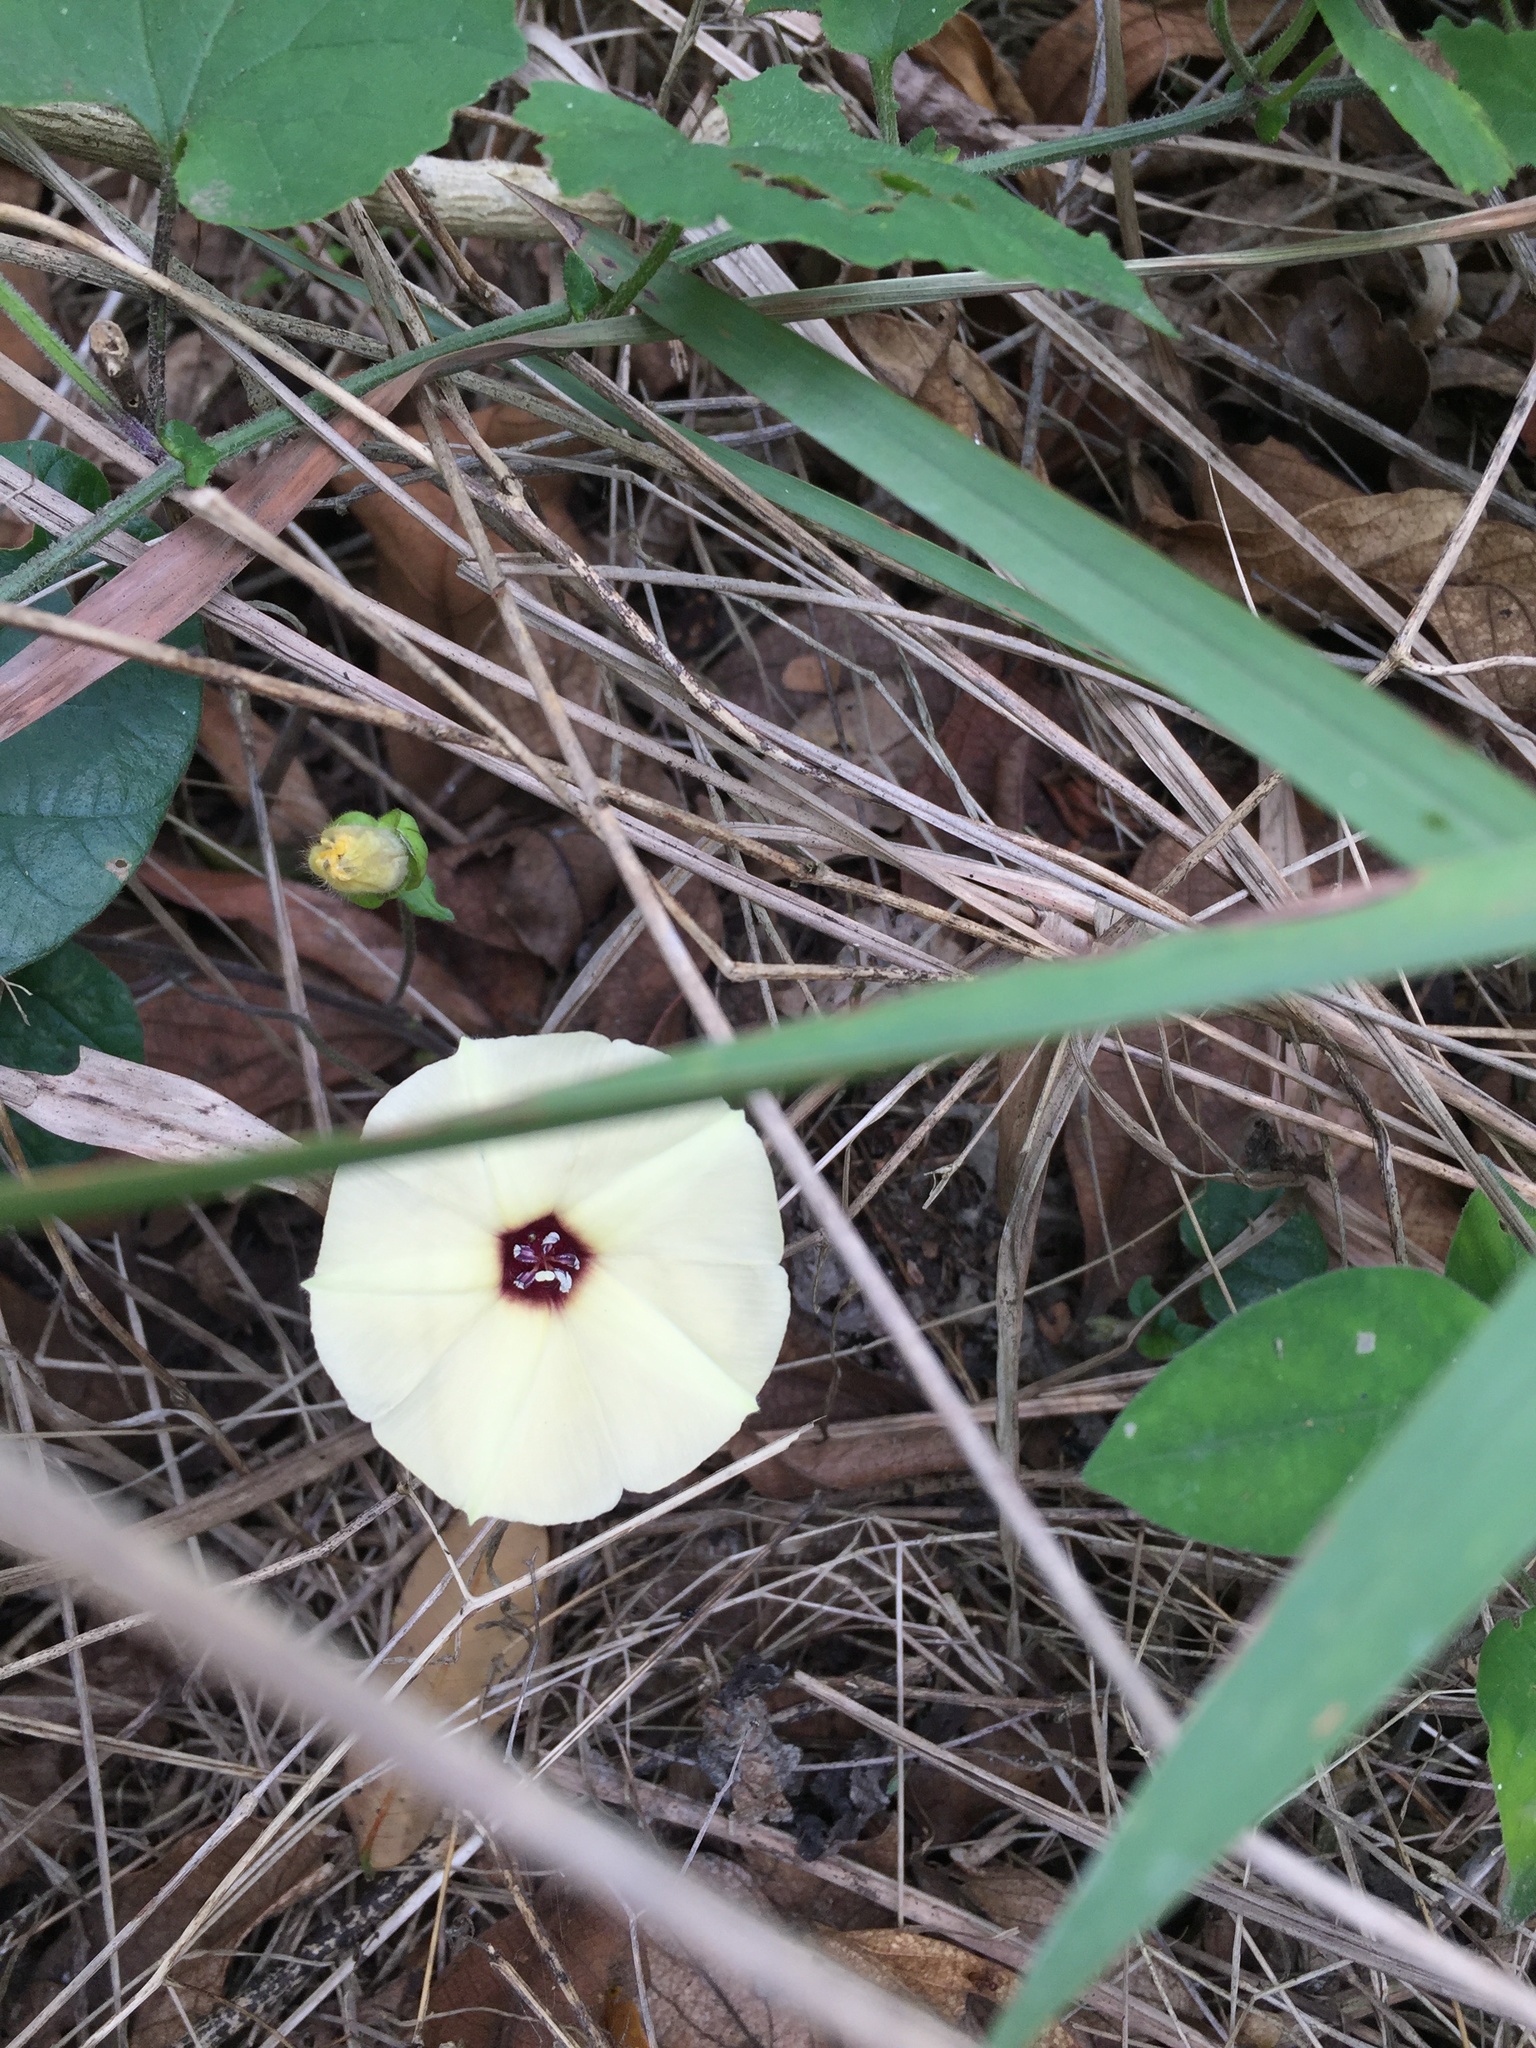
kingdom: Plantae
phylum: Tracheophyta
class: Magnoliopsida
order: Solanales
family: Convolvulaceae
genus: Hewittia
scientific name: Hewittia malabarica
